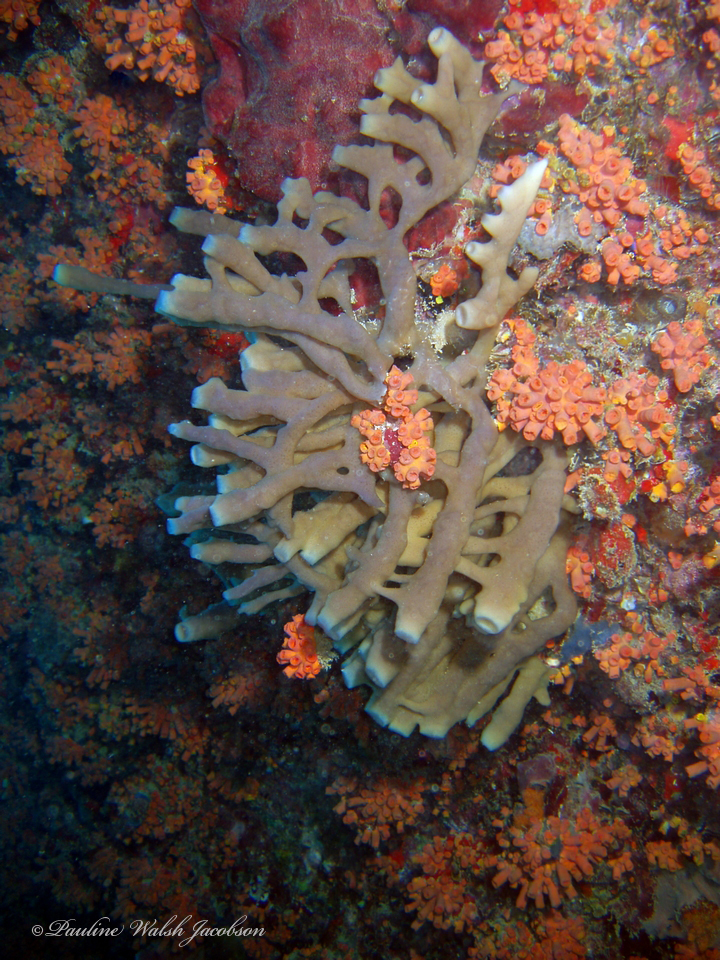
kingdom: Animalia
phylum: Porifera
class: Demospongiae
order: Haplosclerida
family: Callyspongiidae
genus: Callyspongia
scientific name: Callyspongia fallax
